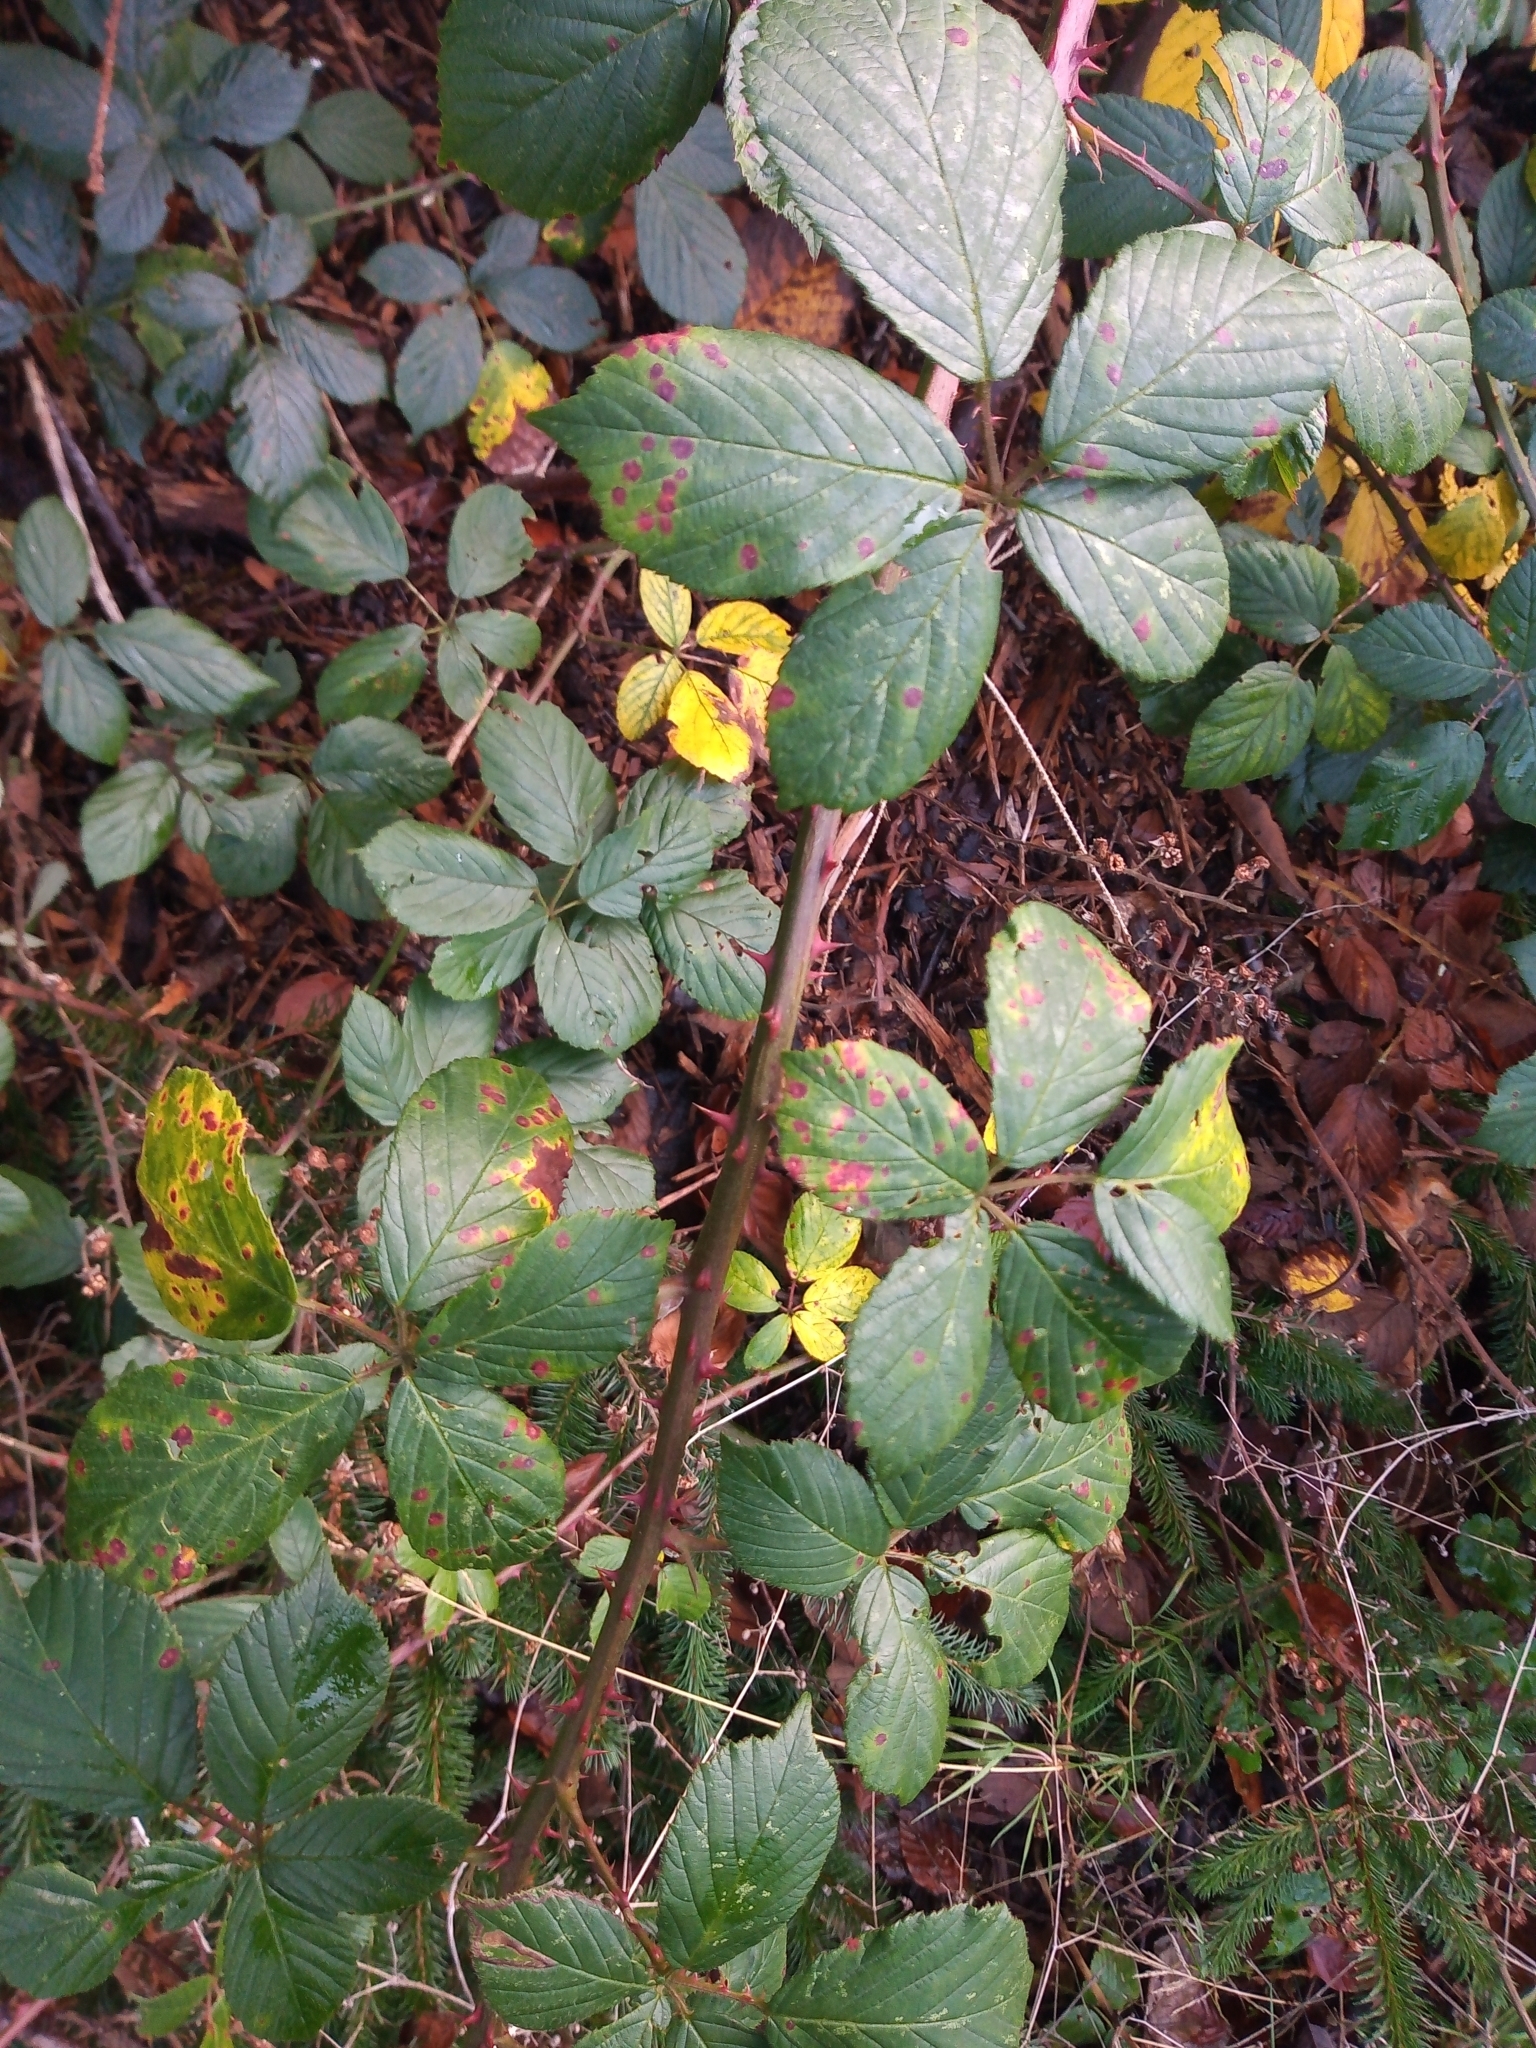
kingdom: Fungi
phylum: Basidiomycota
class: Pucciniomycetes
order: Pucciniales
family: Phragmidiaceae
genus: Phragmidium
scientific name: Phragmidium violaceum
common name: Violet bramble rust
